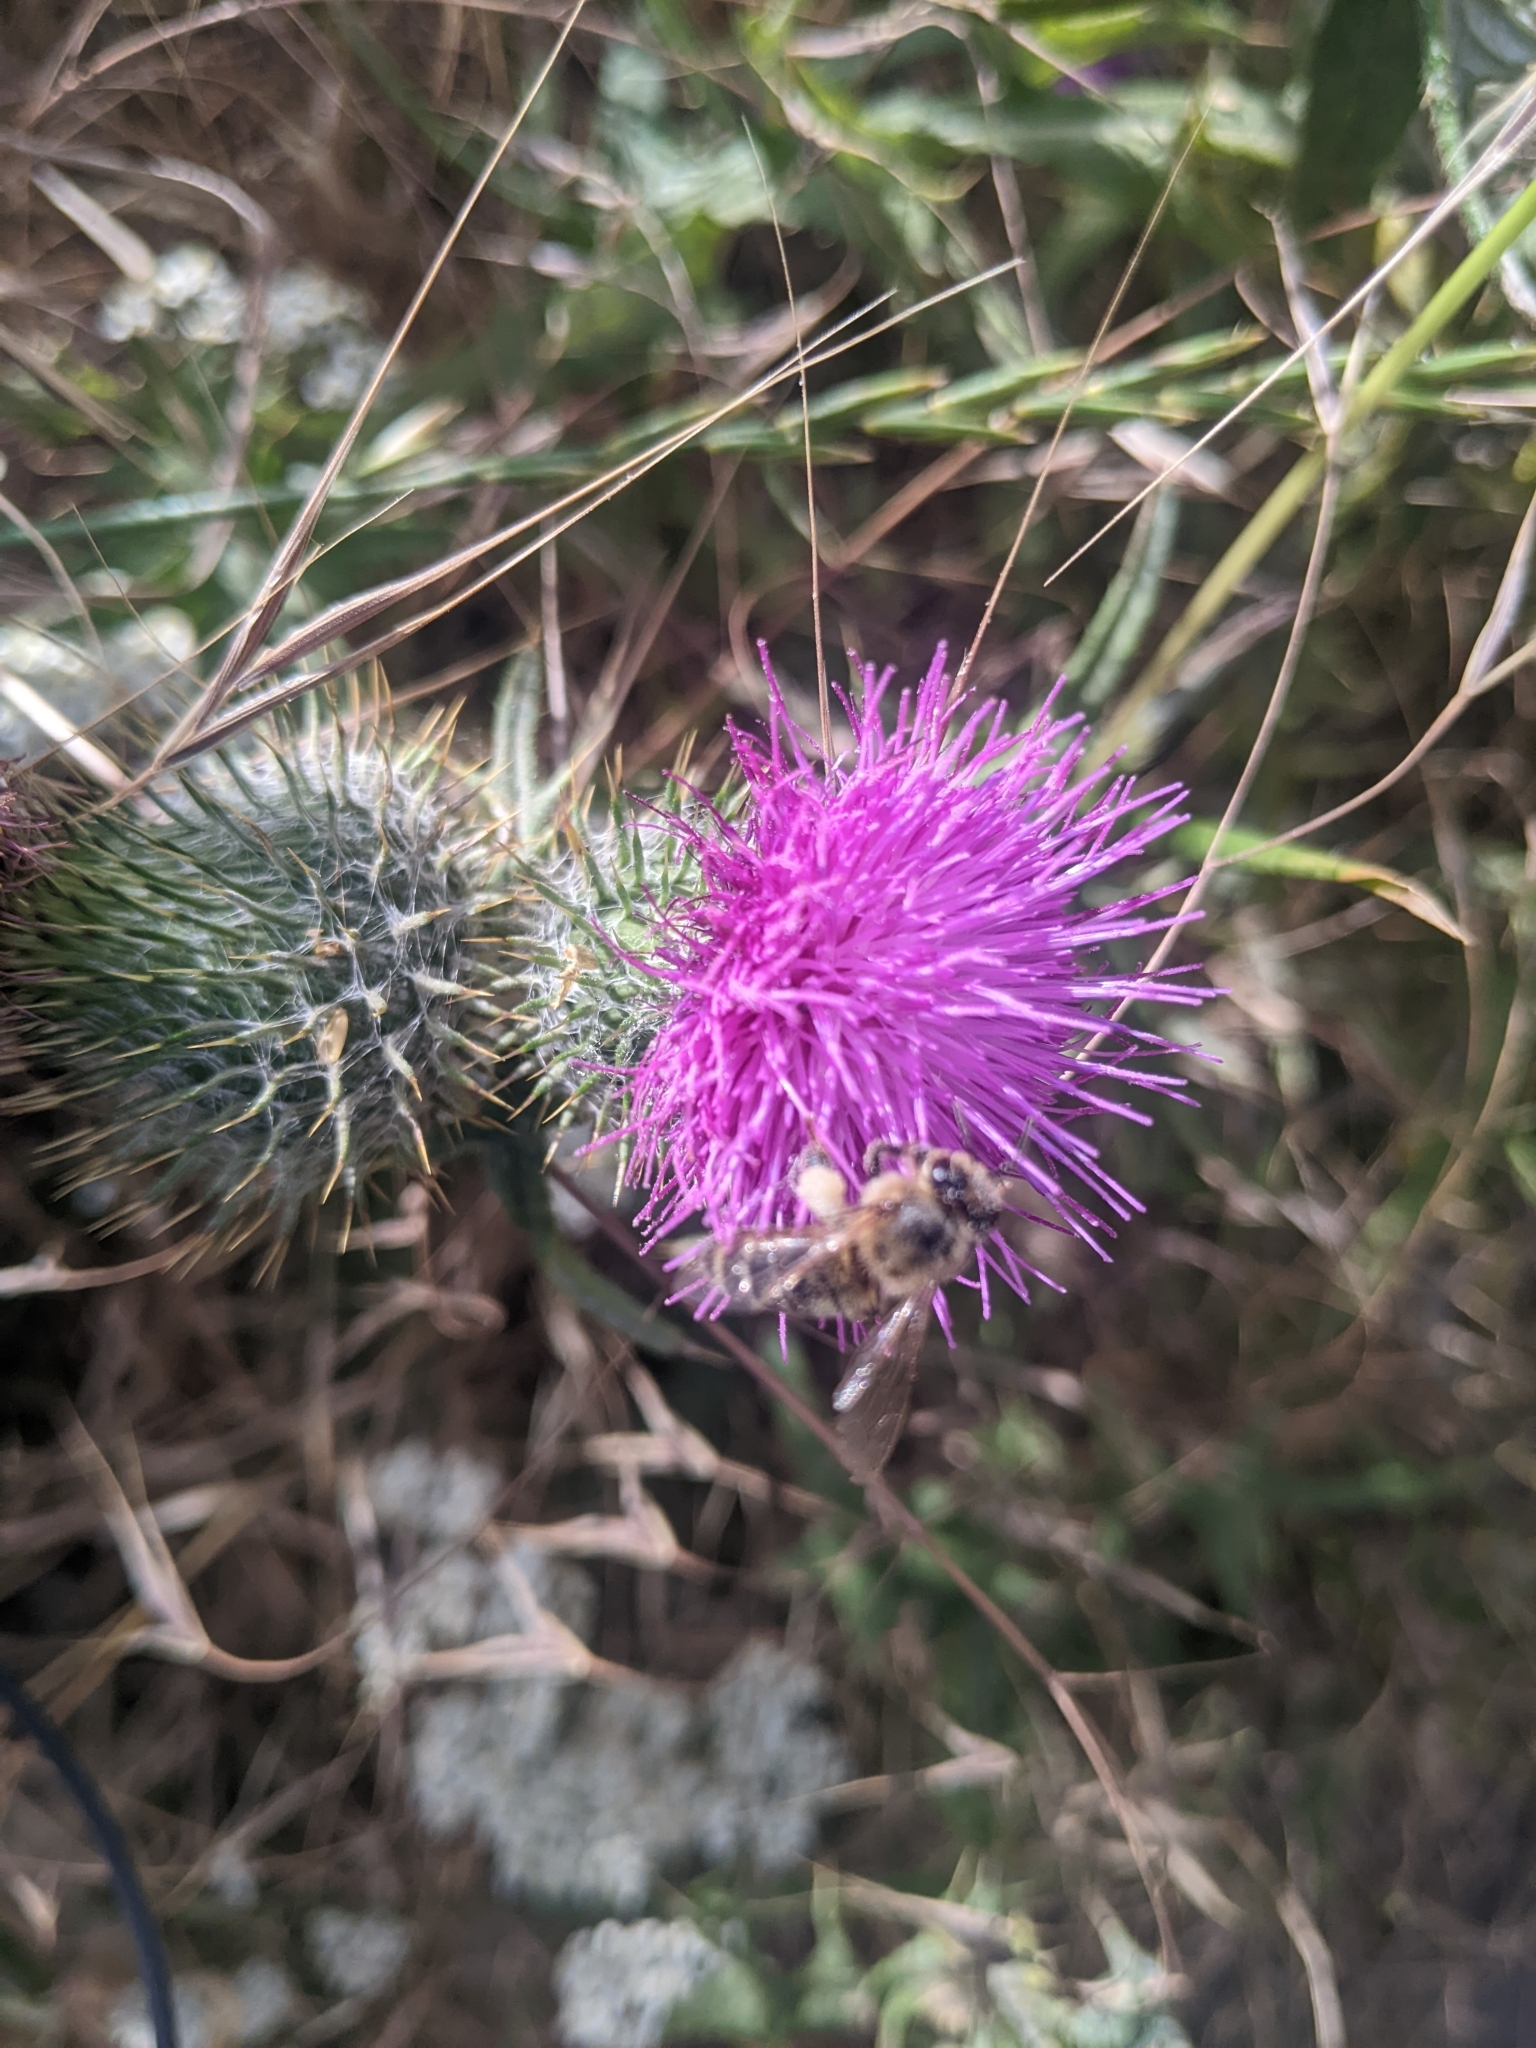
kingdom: Animalia
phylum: Arthropoda
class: Insecta
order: Hymenoptera
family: Apidae
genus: Apis
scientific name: Apis mellifera
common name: Honey bee
